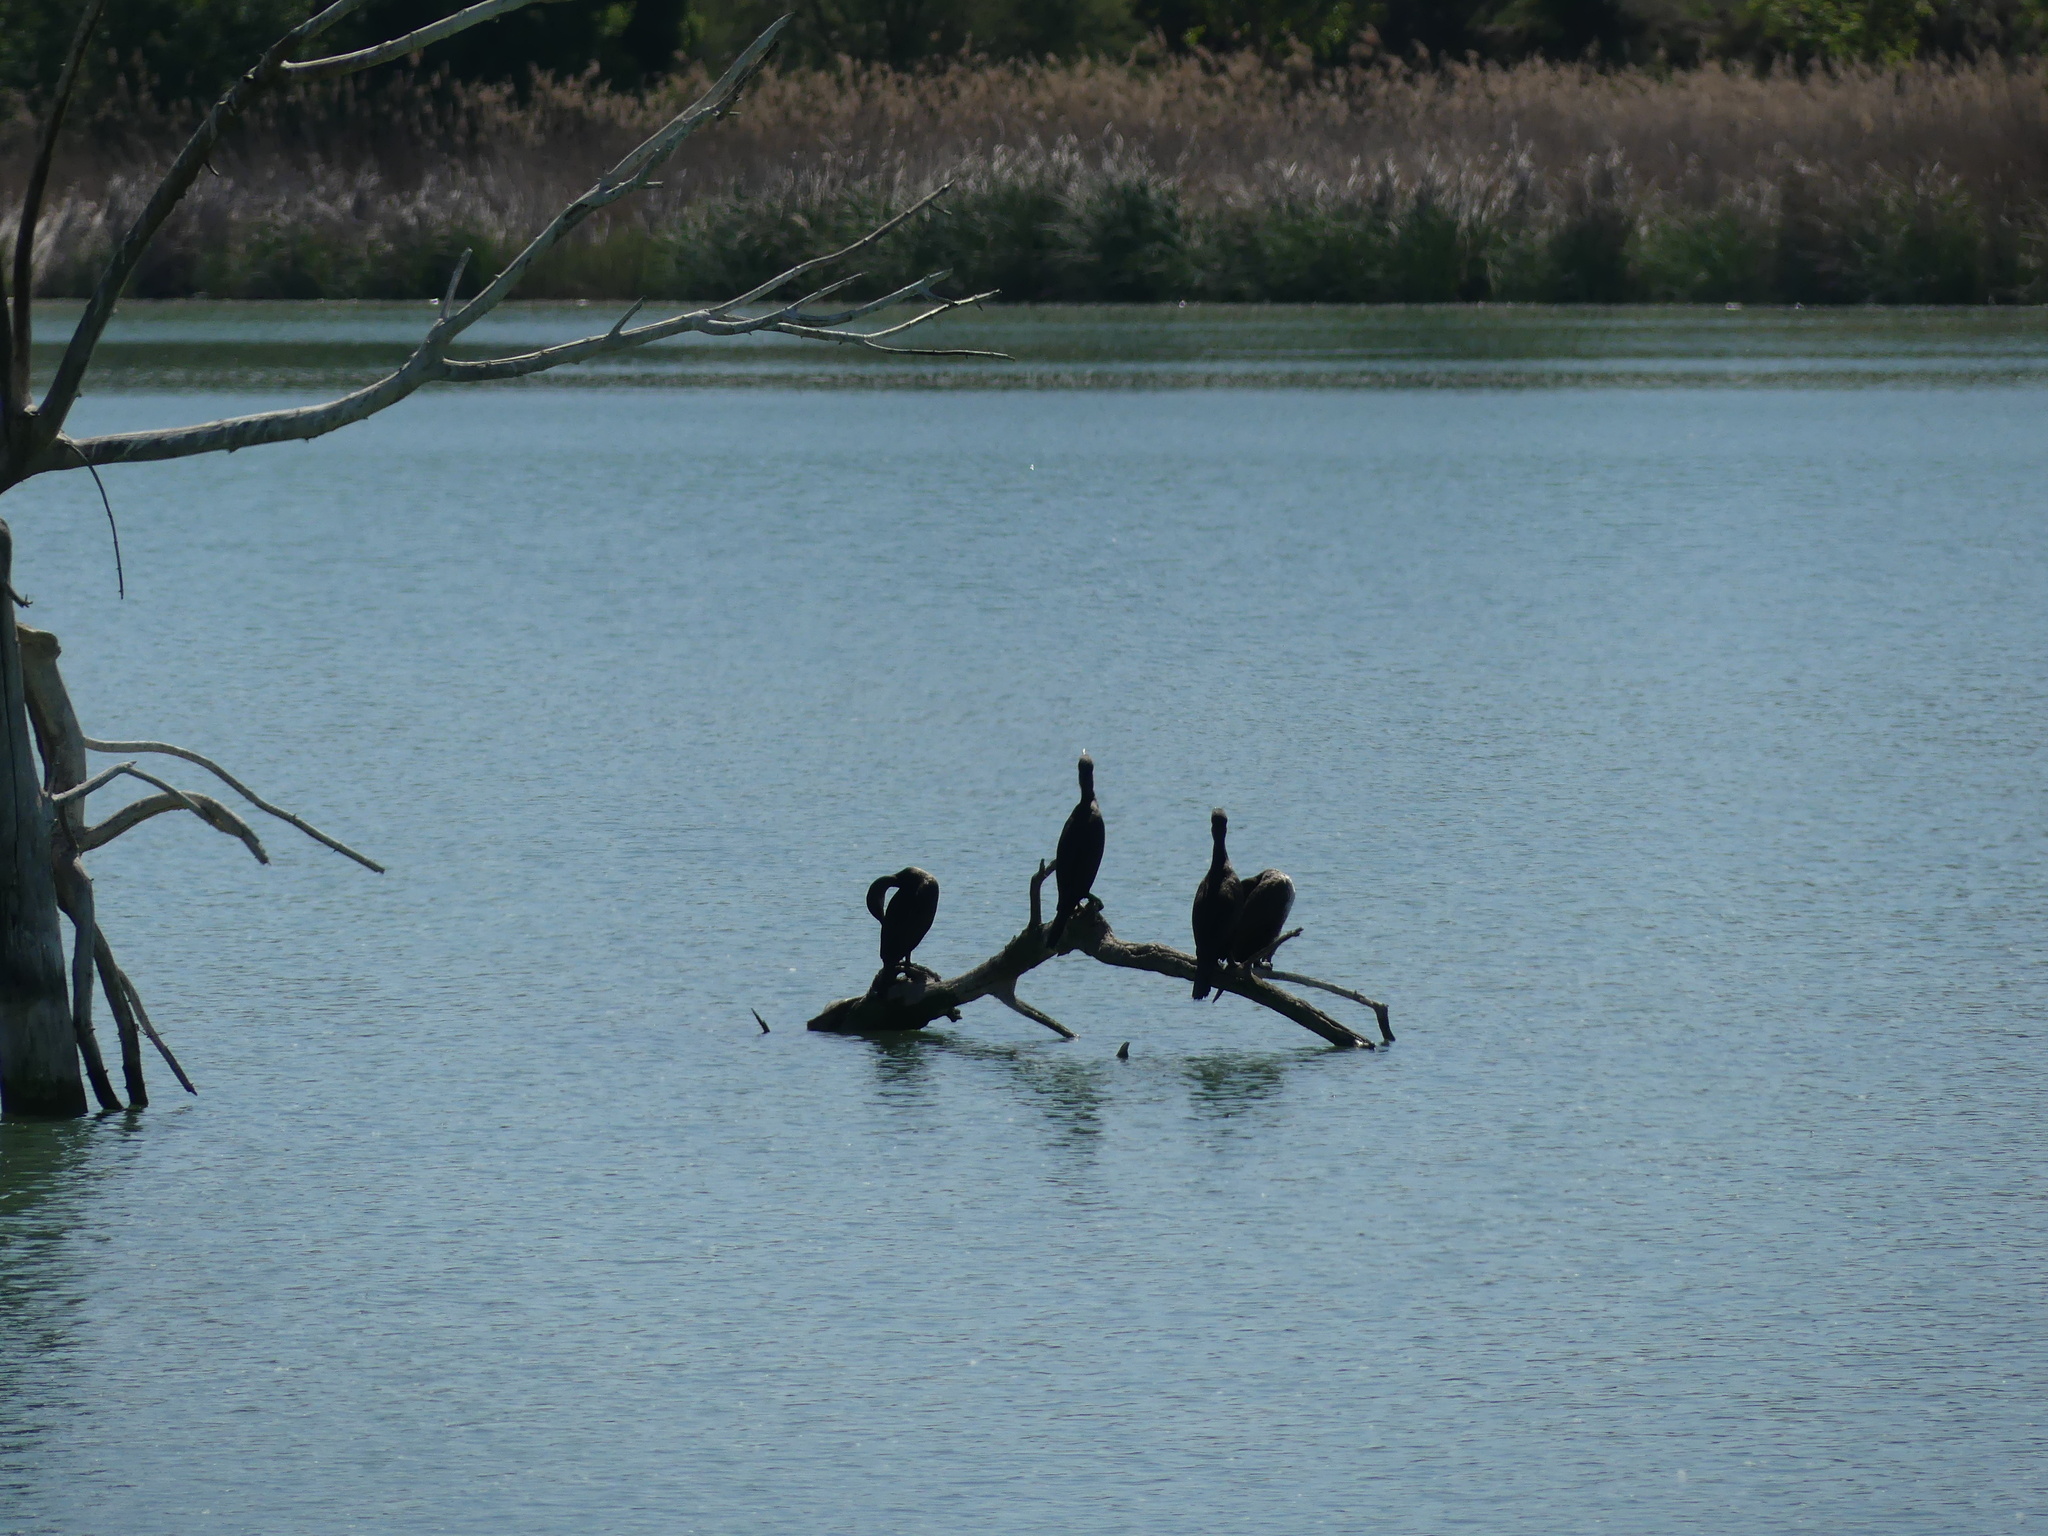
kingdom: Animalia
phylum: Chordata
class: Aves
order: Suliformes
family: Phalacrocoracidae
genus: Phalacrocorax
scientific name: Phalacrocorax carbo
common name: Great cormorant
